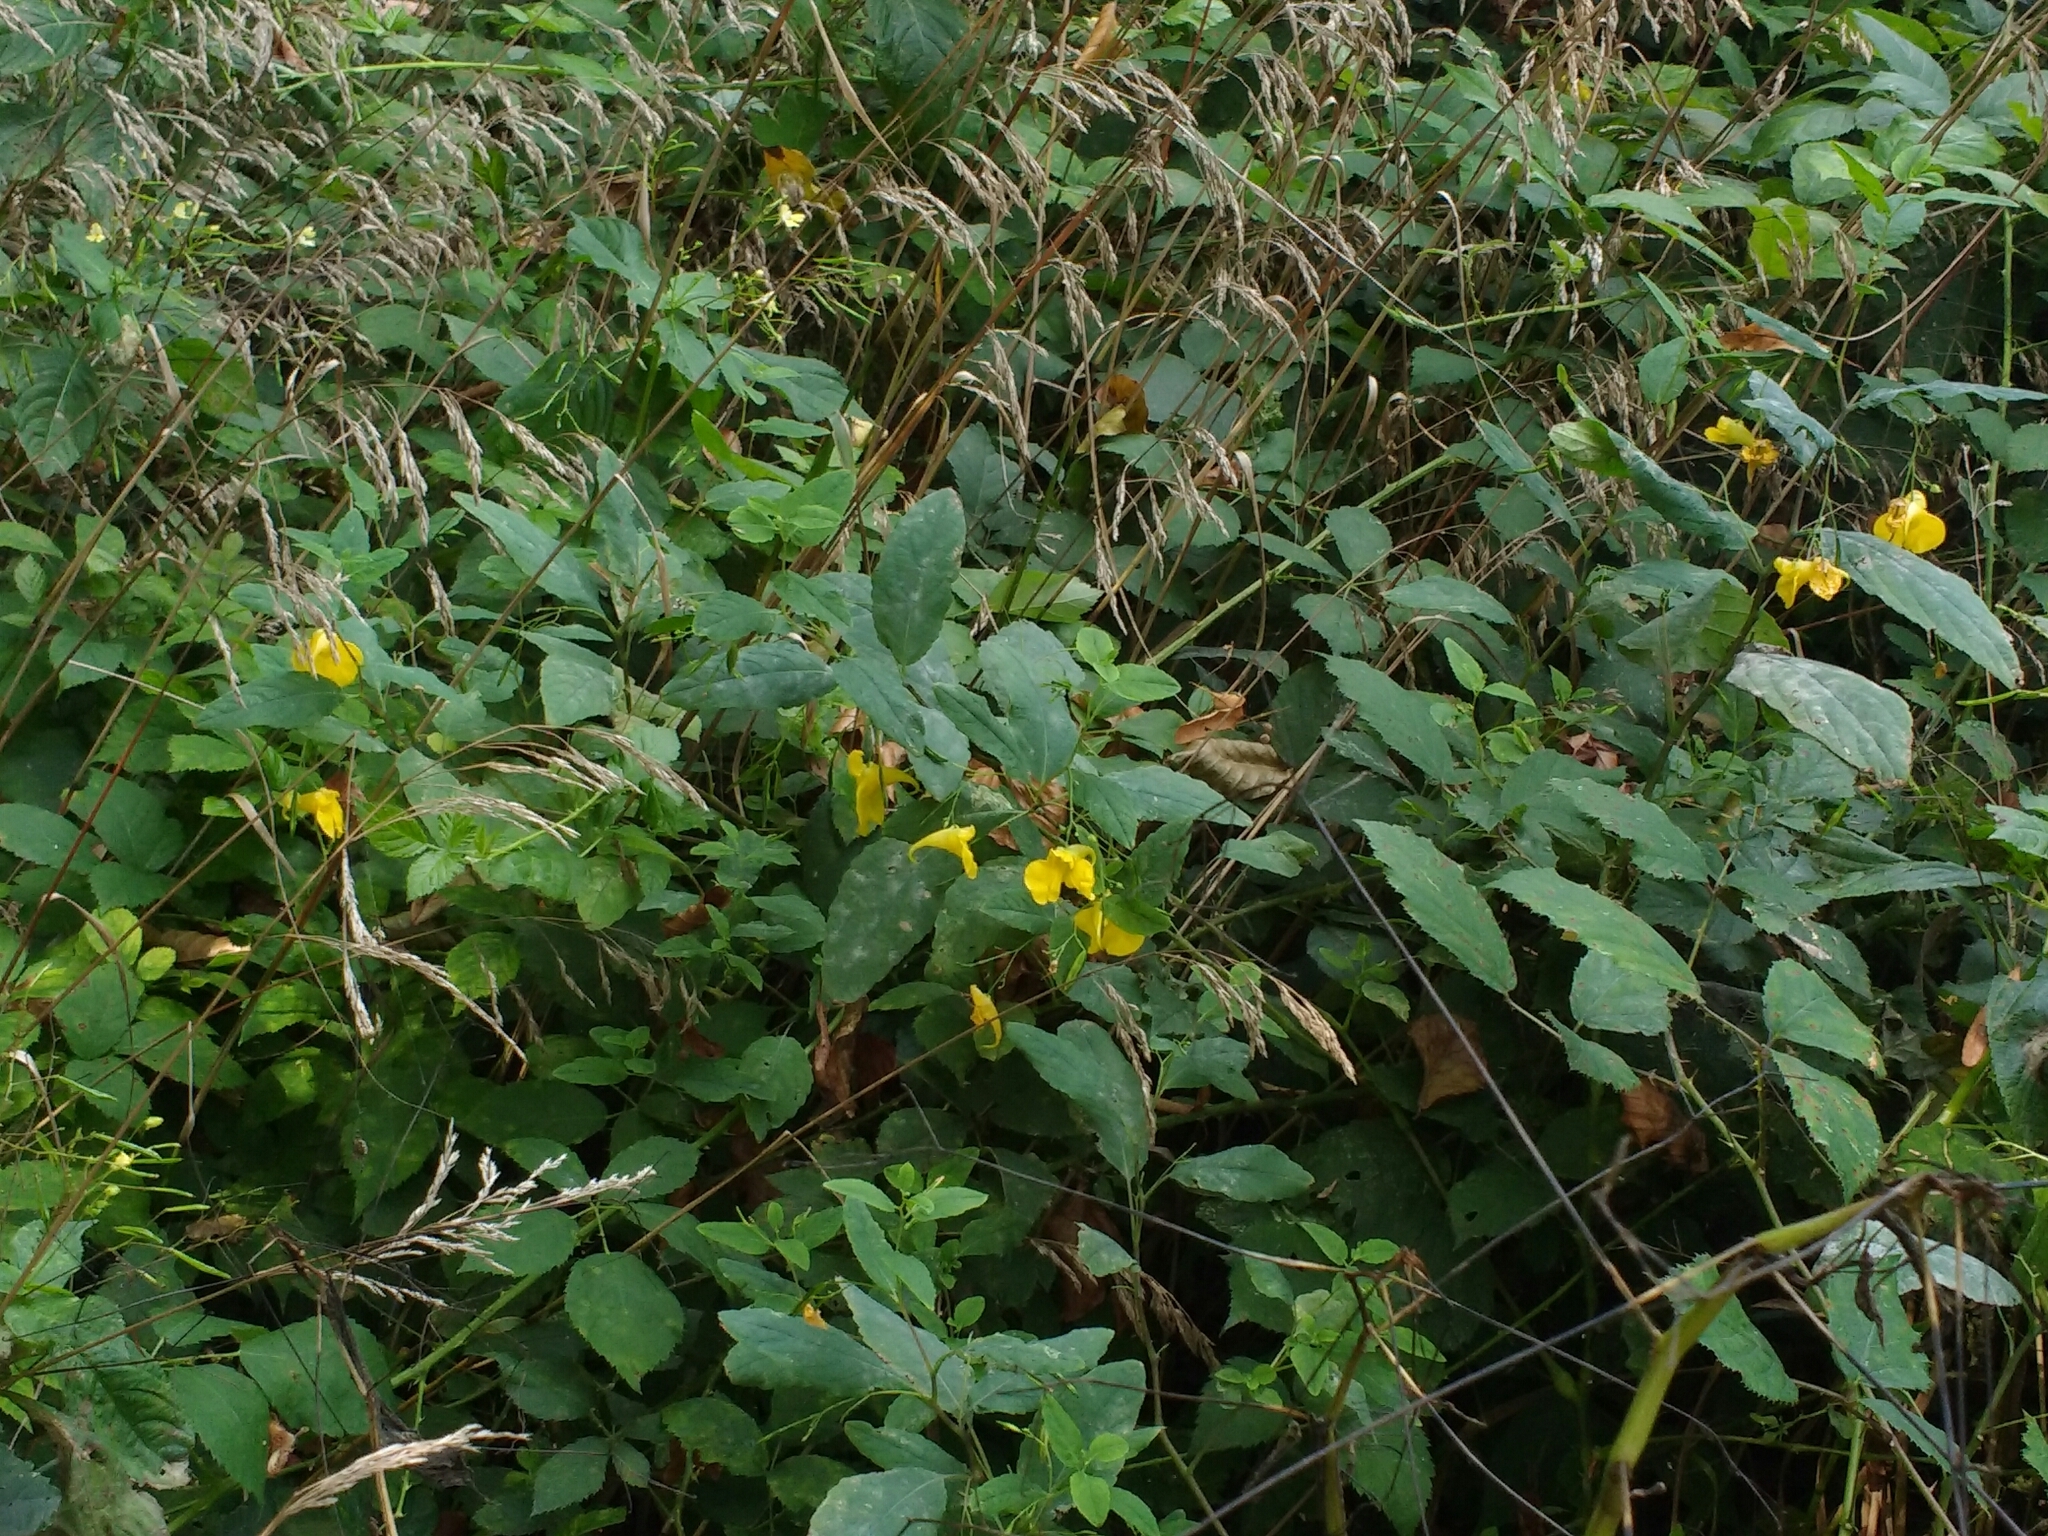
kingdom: Plantae
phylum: Tracheophyta
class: Magnoliopsida
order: Ericales
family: Balsaminaceae
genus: Impatiens
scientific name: Impatiens noli-tangere
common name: Touch-me-not balsam
